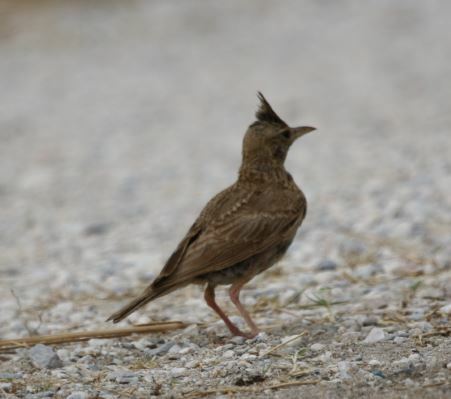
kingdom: Animalia
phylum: Chordata
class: Aves
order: Passeriformes
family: Alaudidae
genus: Galerida
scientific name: Galerida cristata
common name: Crested lark
